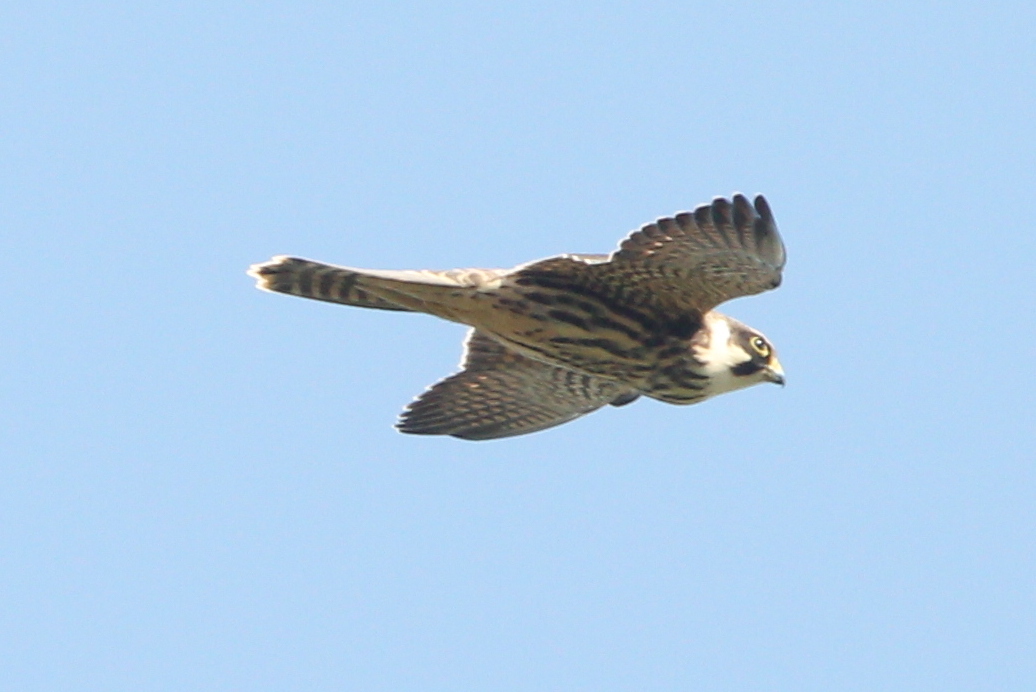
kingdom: Animalia
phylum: Chordata
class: Aves
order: Falconiformes
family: Falconidae
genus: Falco
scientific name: Falco subbuteo
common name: Eurasian hobby
